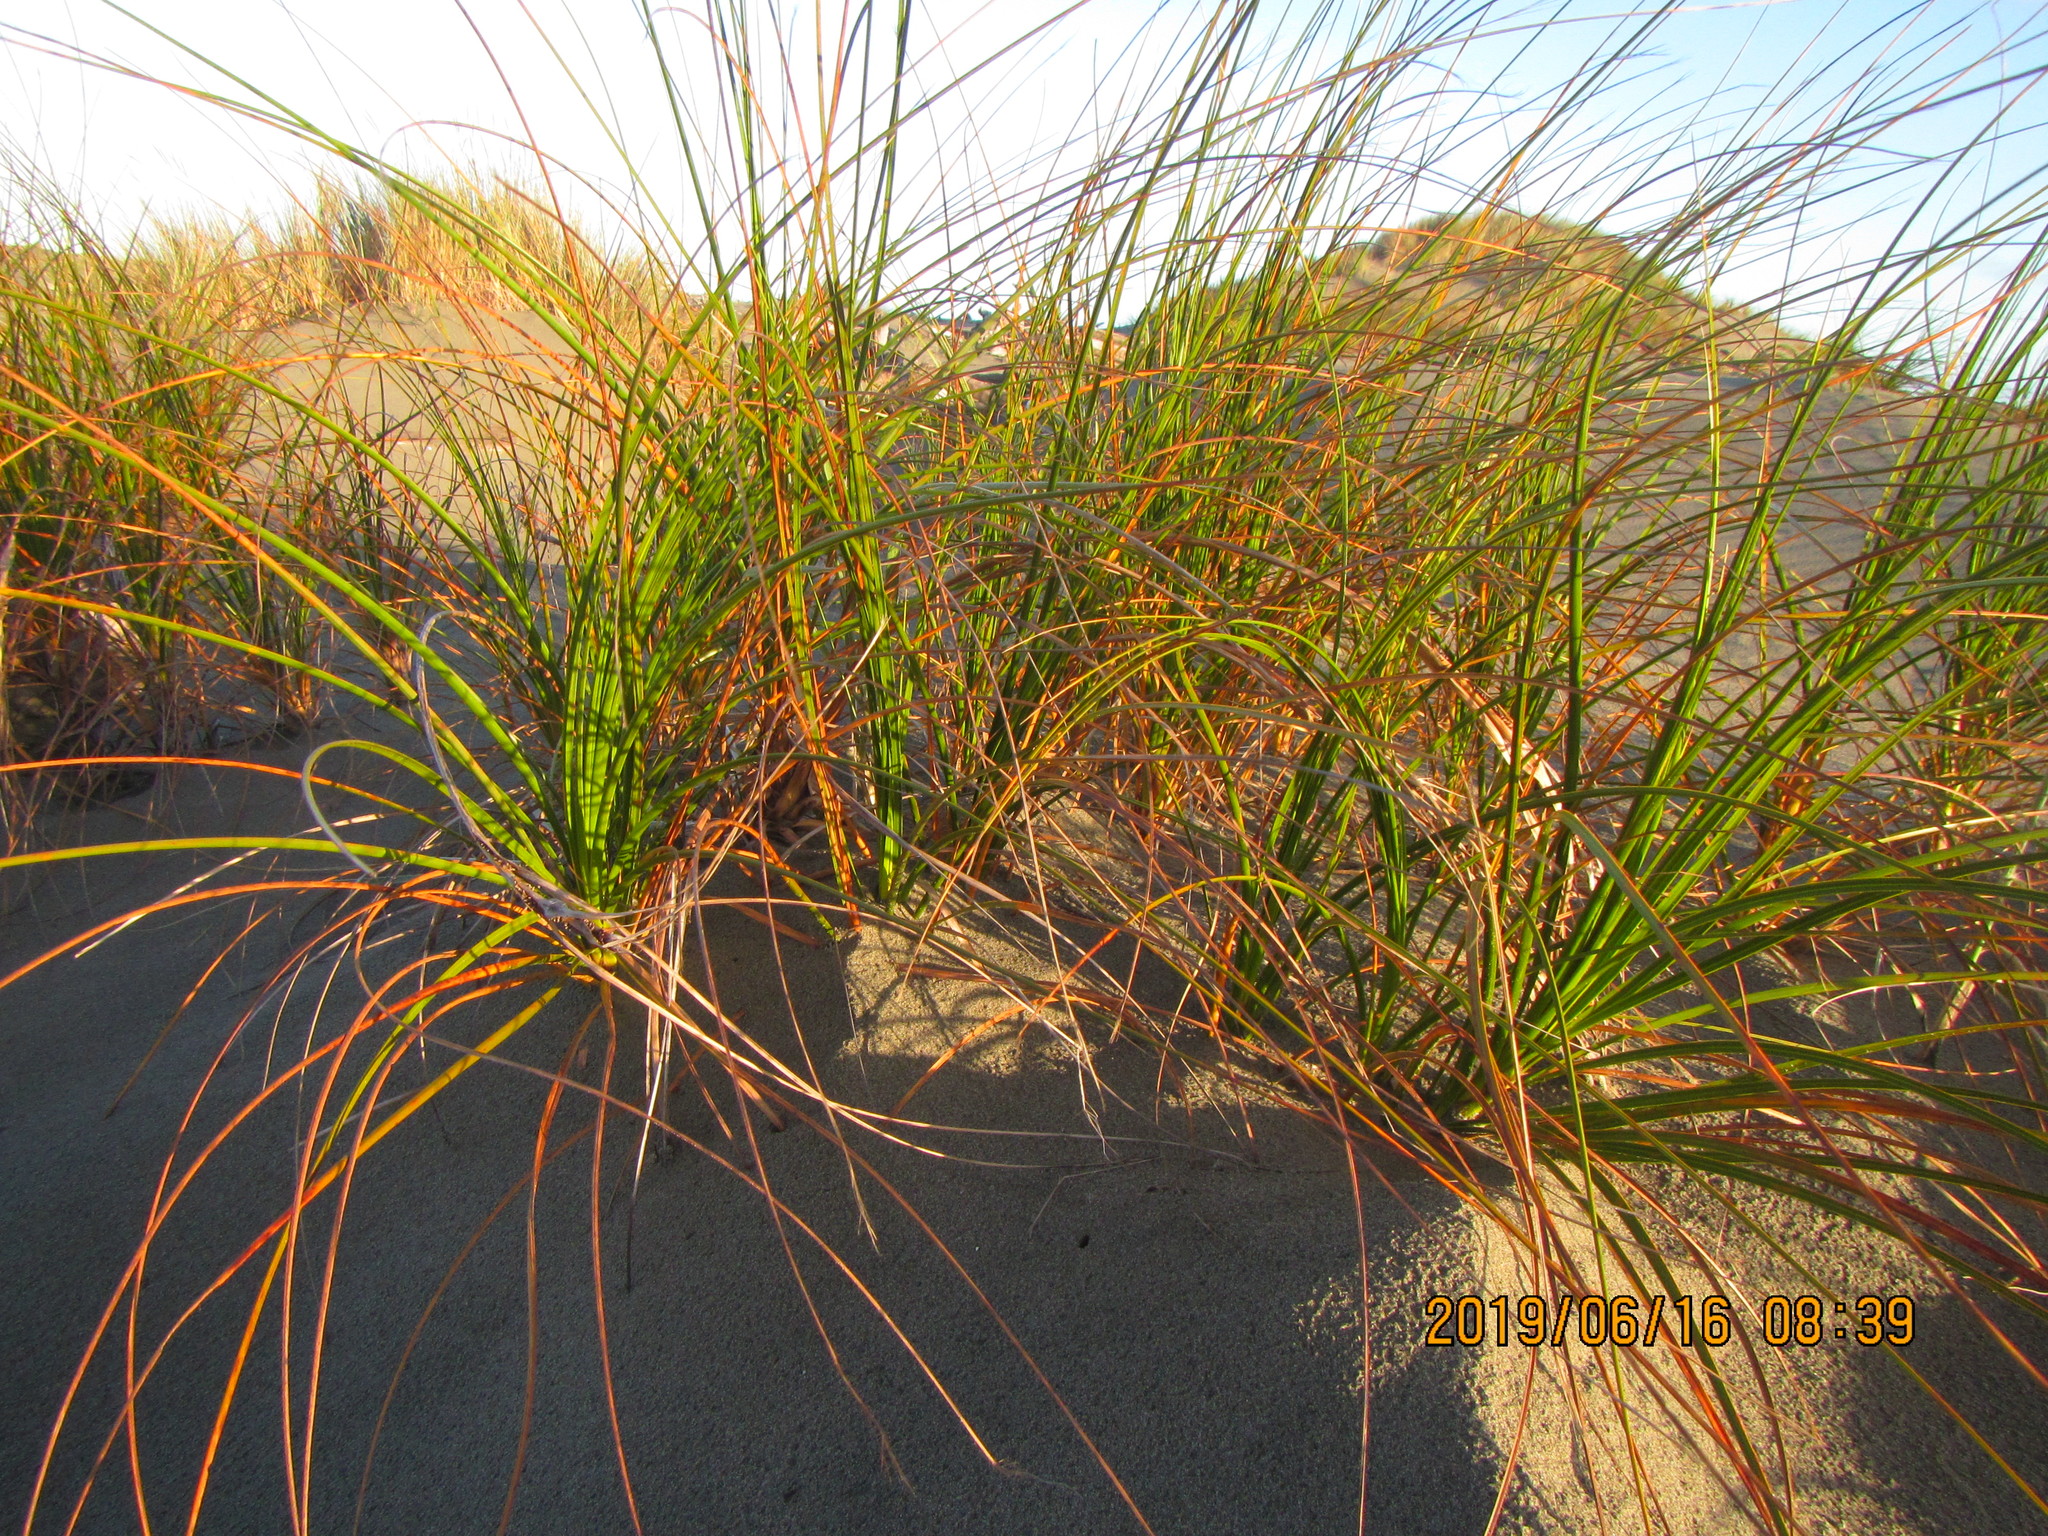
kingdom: Plantae
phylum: Tracheophyta
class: Liliopsida
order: Poales
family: Cyperaceae
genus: Ficinia
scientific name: Ficinia spiralis
